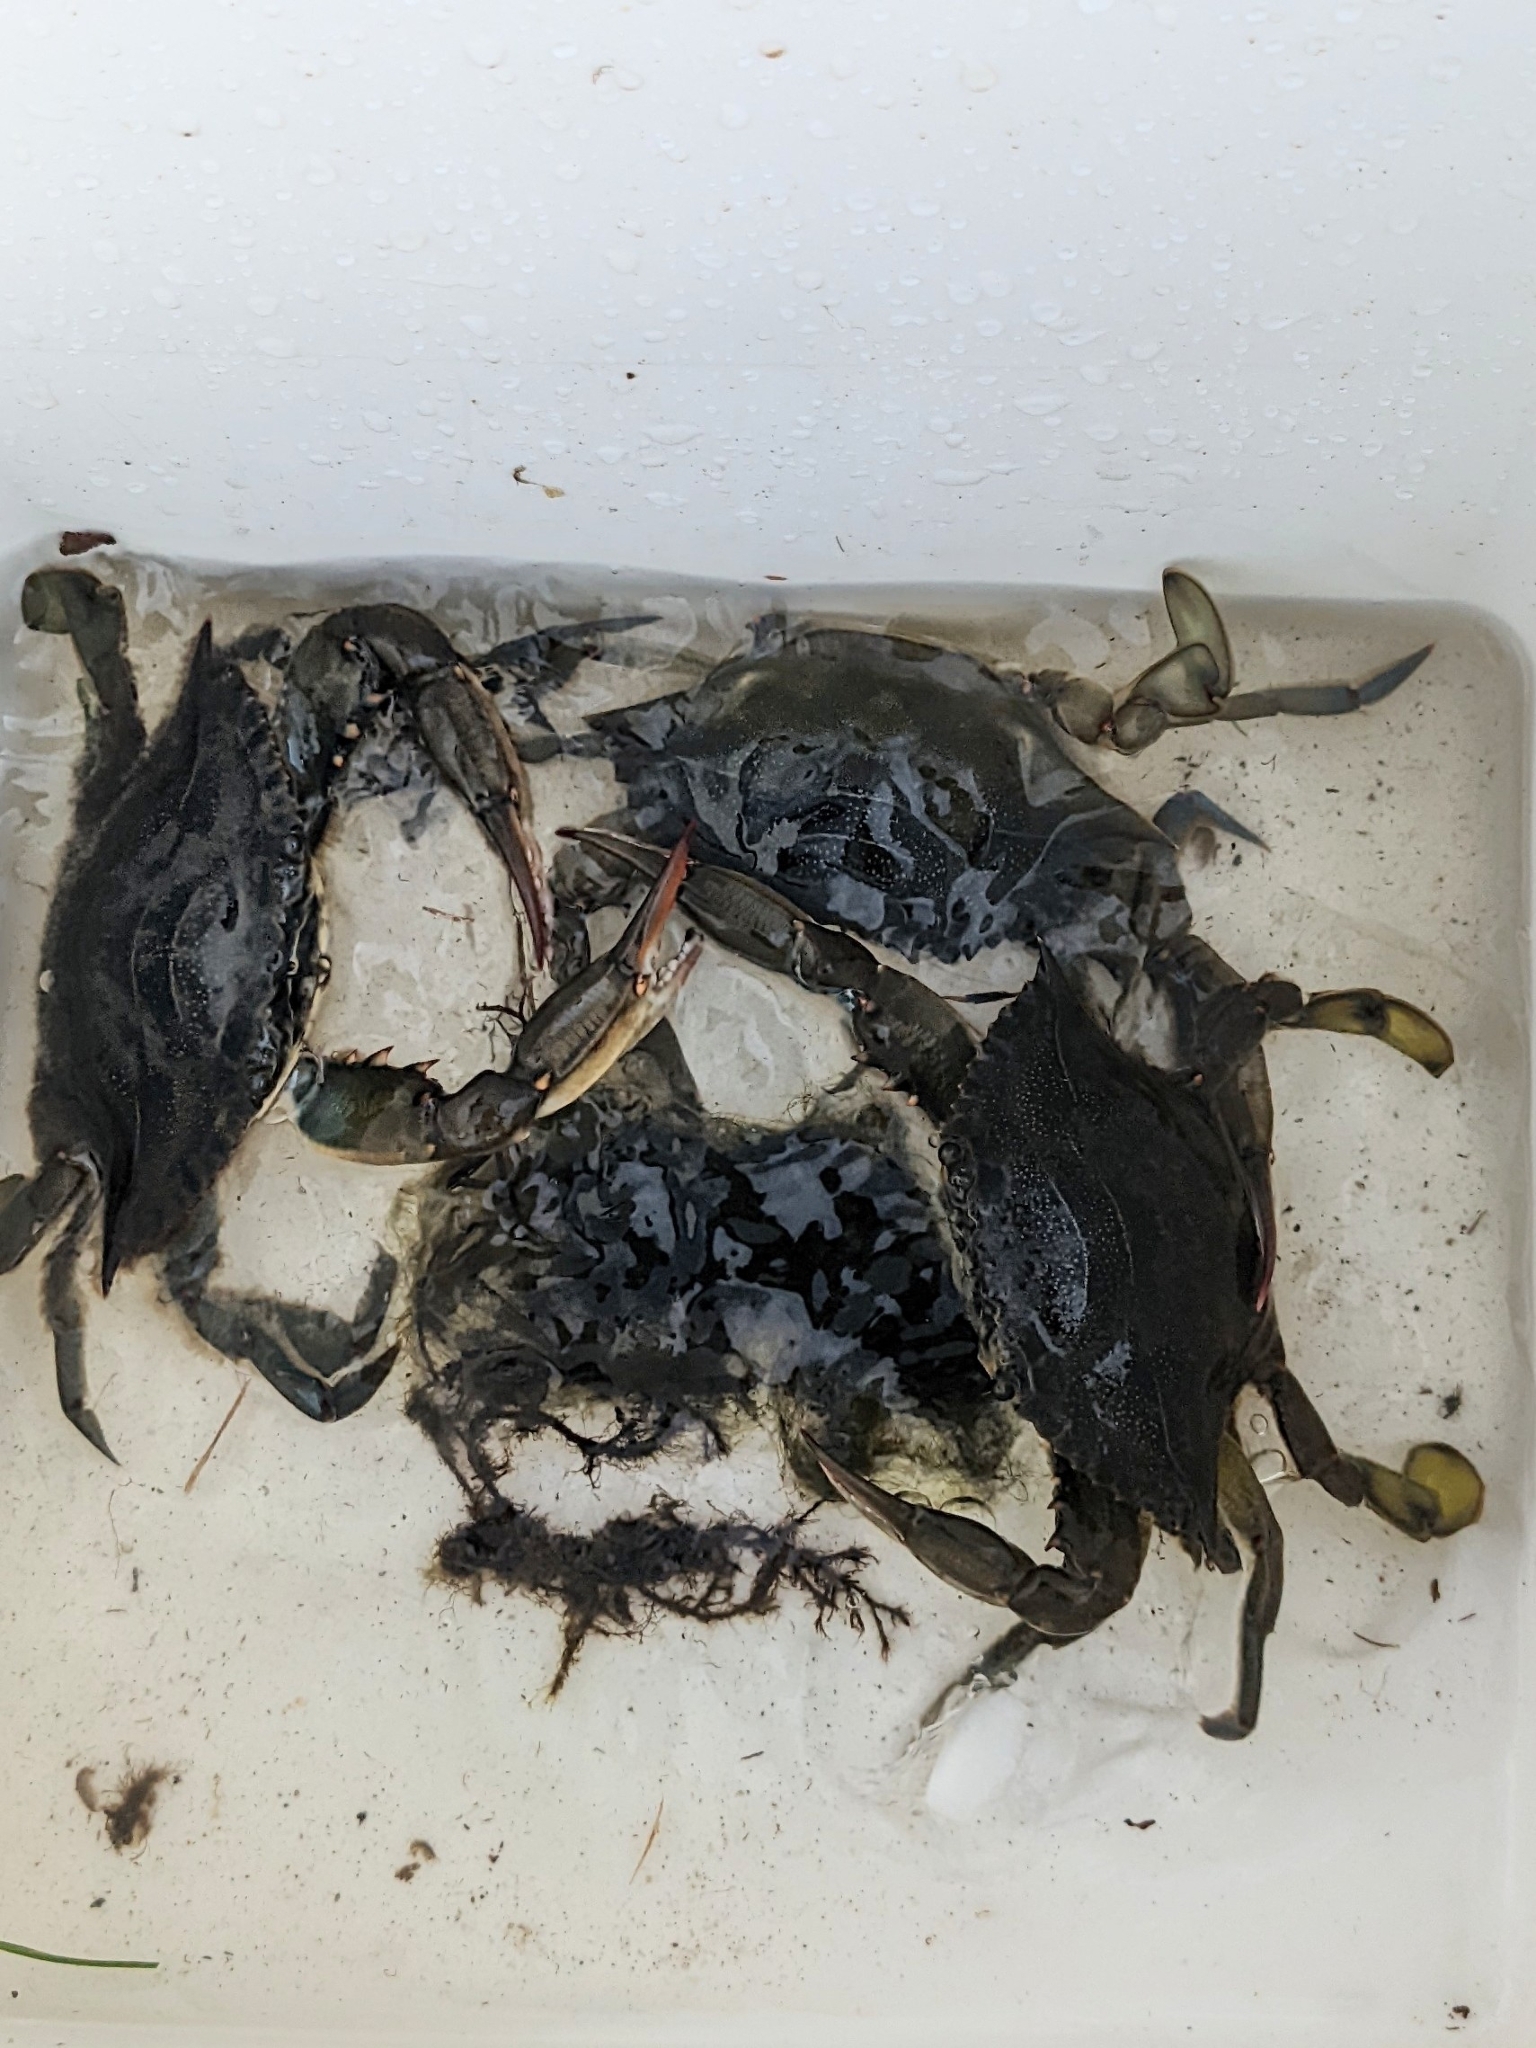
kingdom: Animalia
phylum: Arthropoda
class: Malacostraca
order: Decapoda
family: Portunidae
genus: Callinectes
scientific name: Callinectes sapidus
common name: Blue crab
